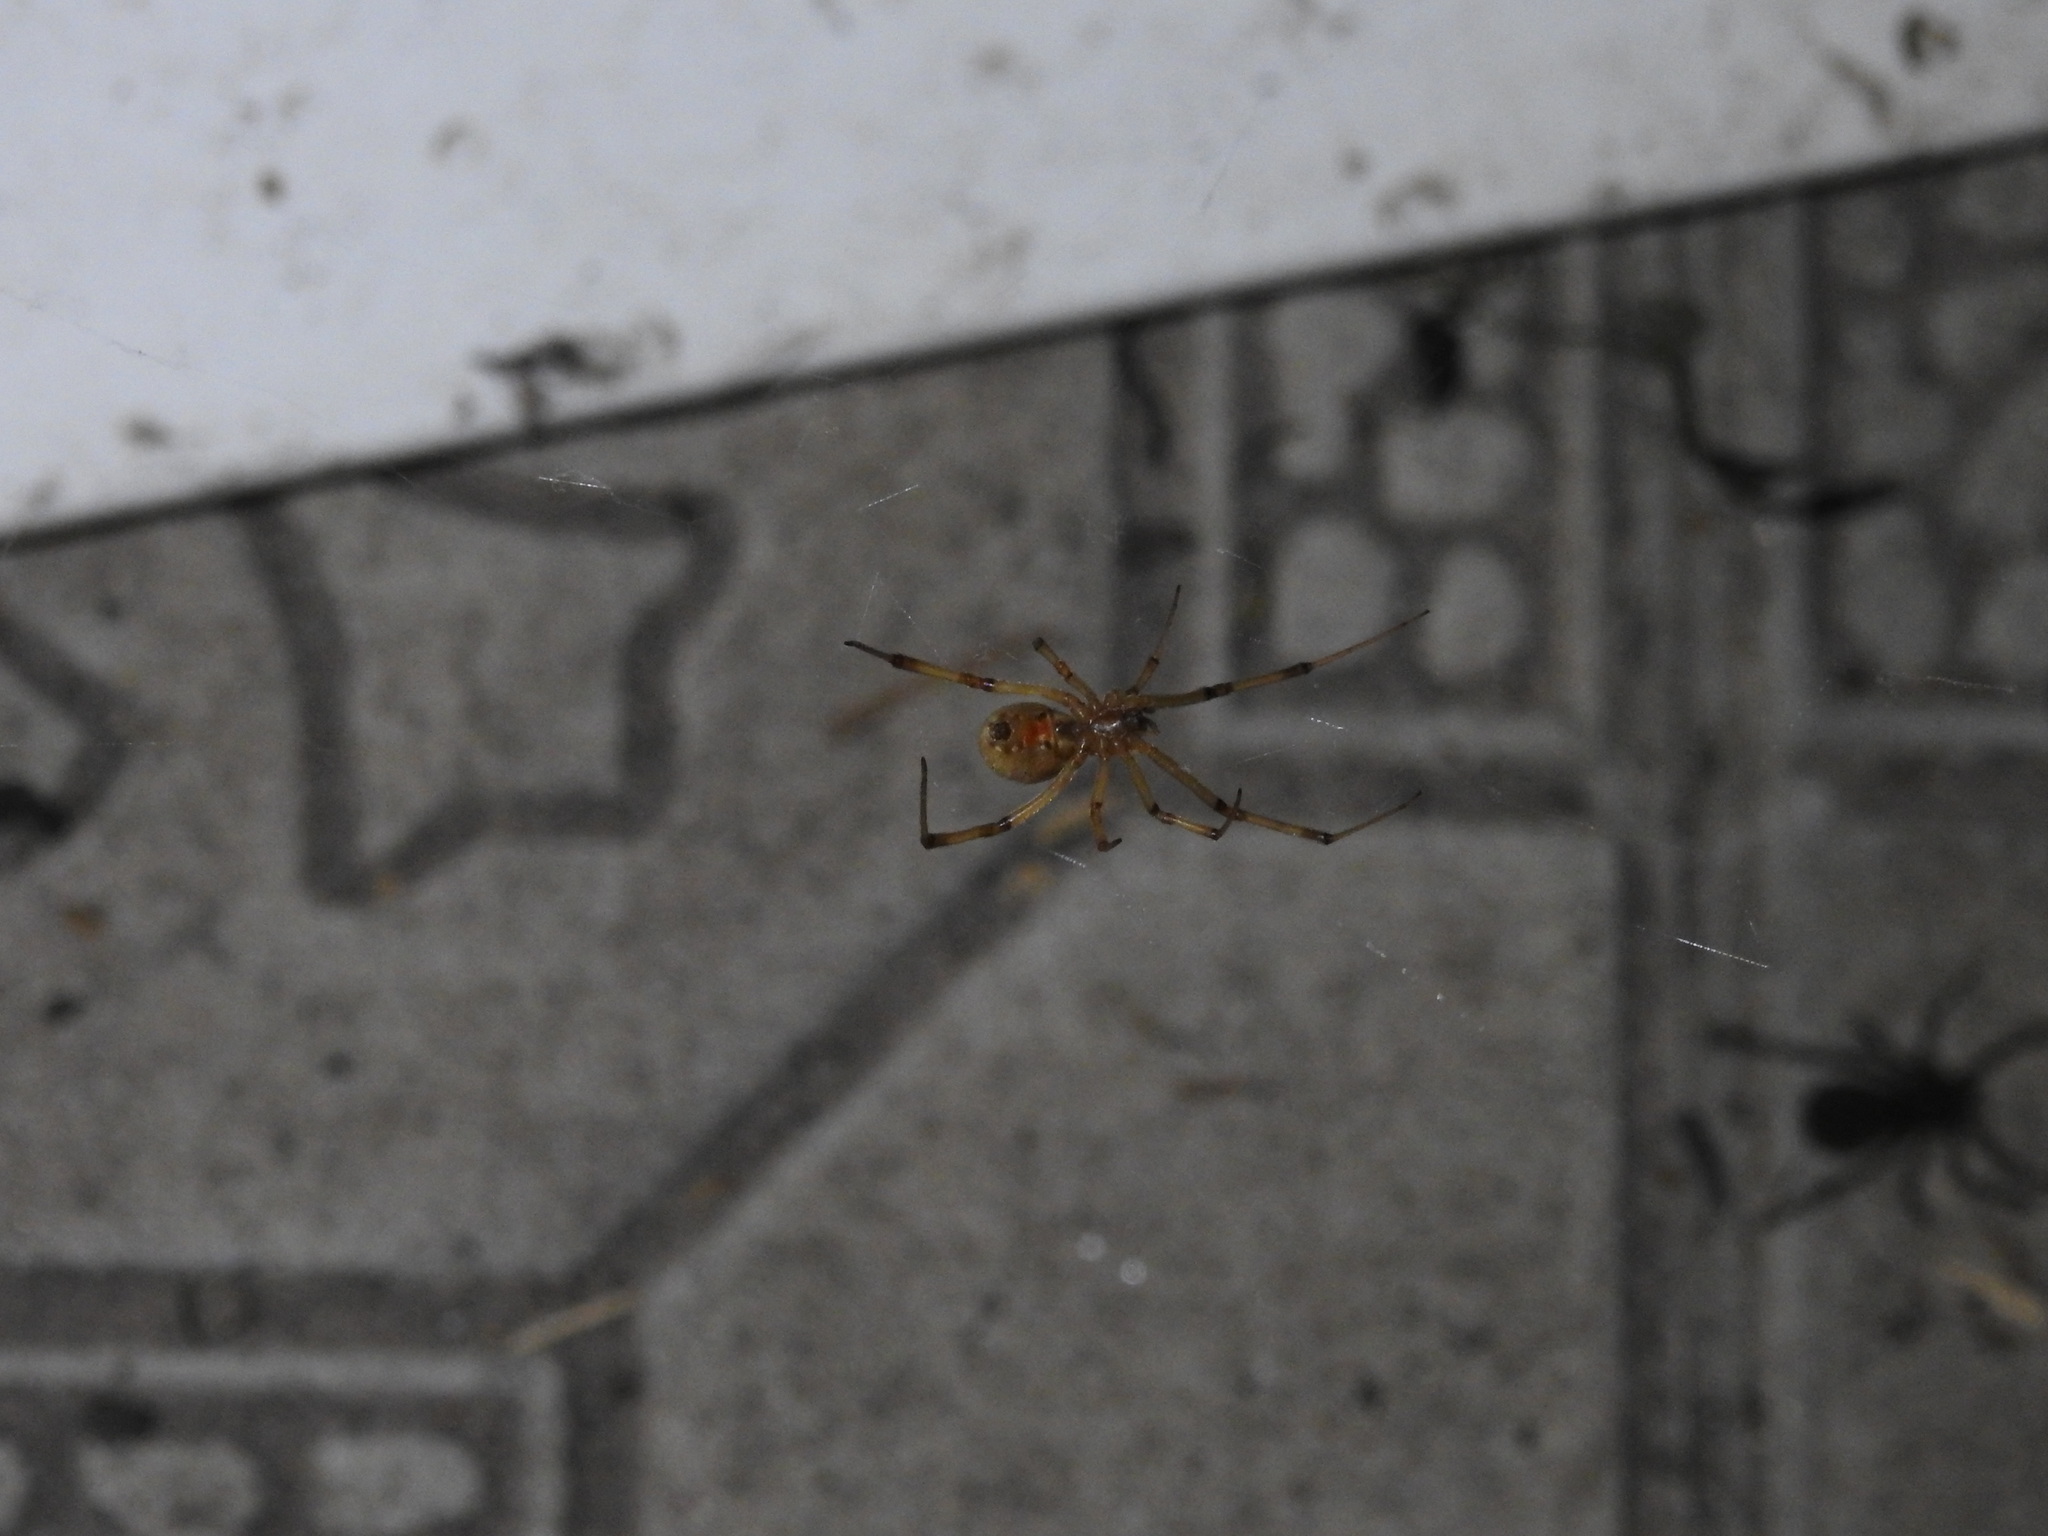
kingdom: Animalia
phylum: Arthropoda
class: Arachnida
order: Araneae
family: Theridiidae
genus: Latrodectus
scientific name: Latrodectus geometricus
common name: Brown widow spider
